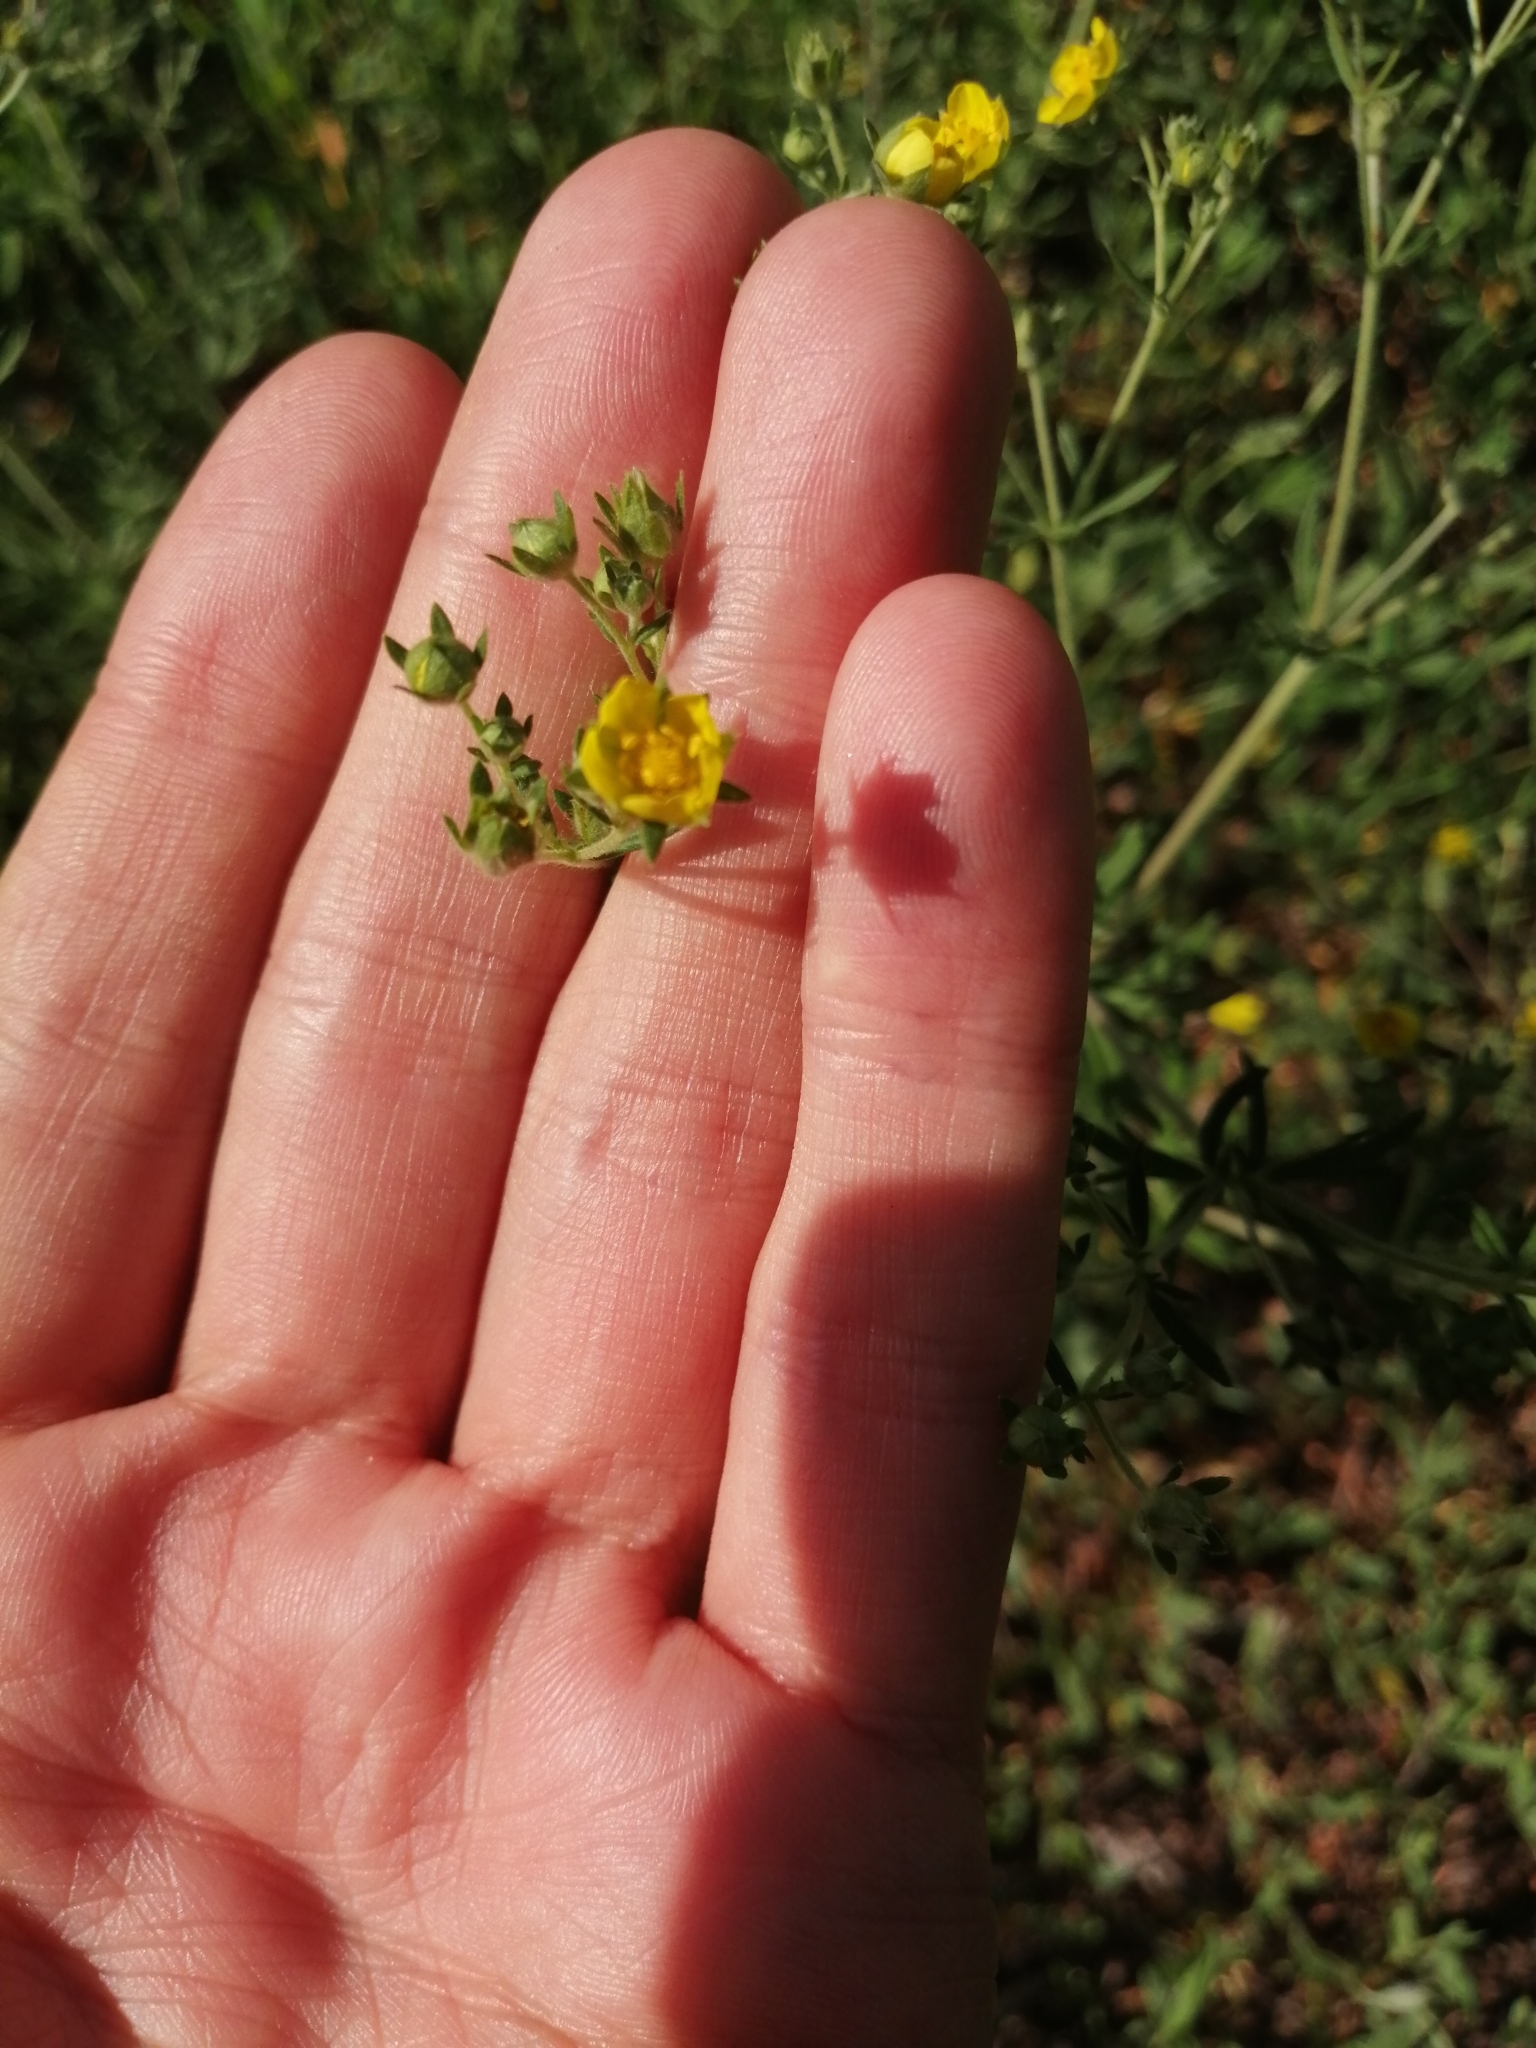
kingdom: Plantae
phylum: Tracheophyta
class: Magnoliopsida
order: Rosales
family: Rosaceae
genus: Potentilla
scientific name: Potentilla argentea
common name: Hoary cinquefoil
